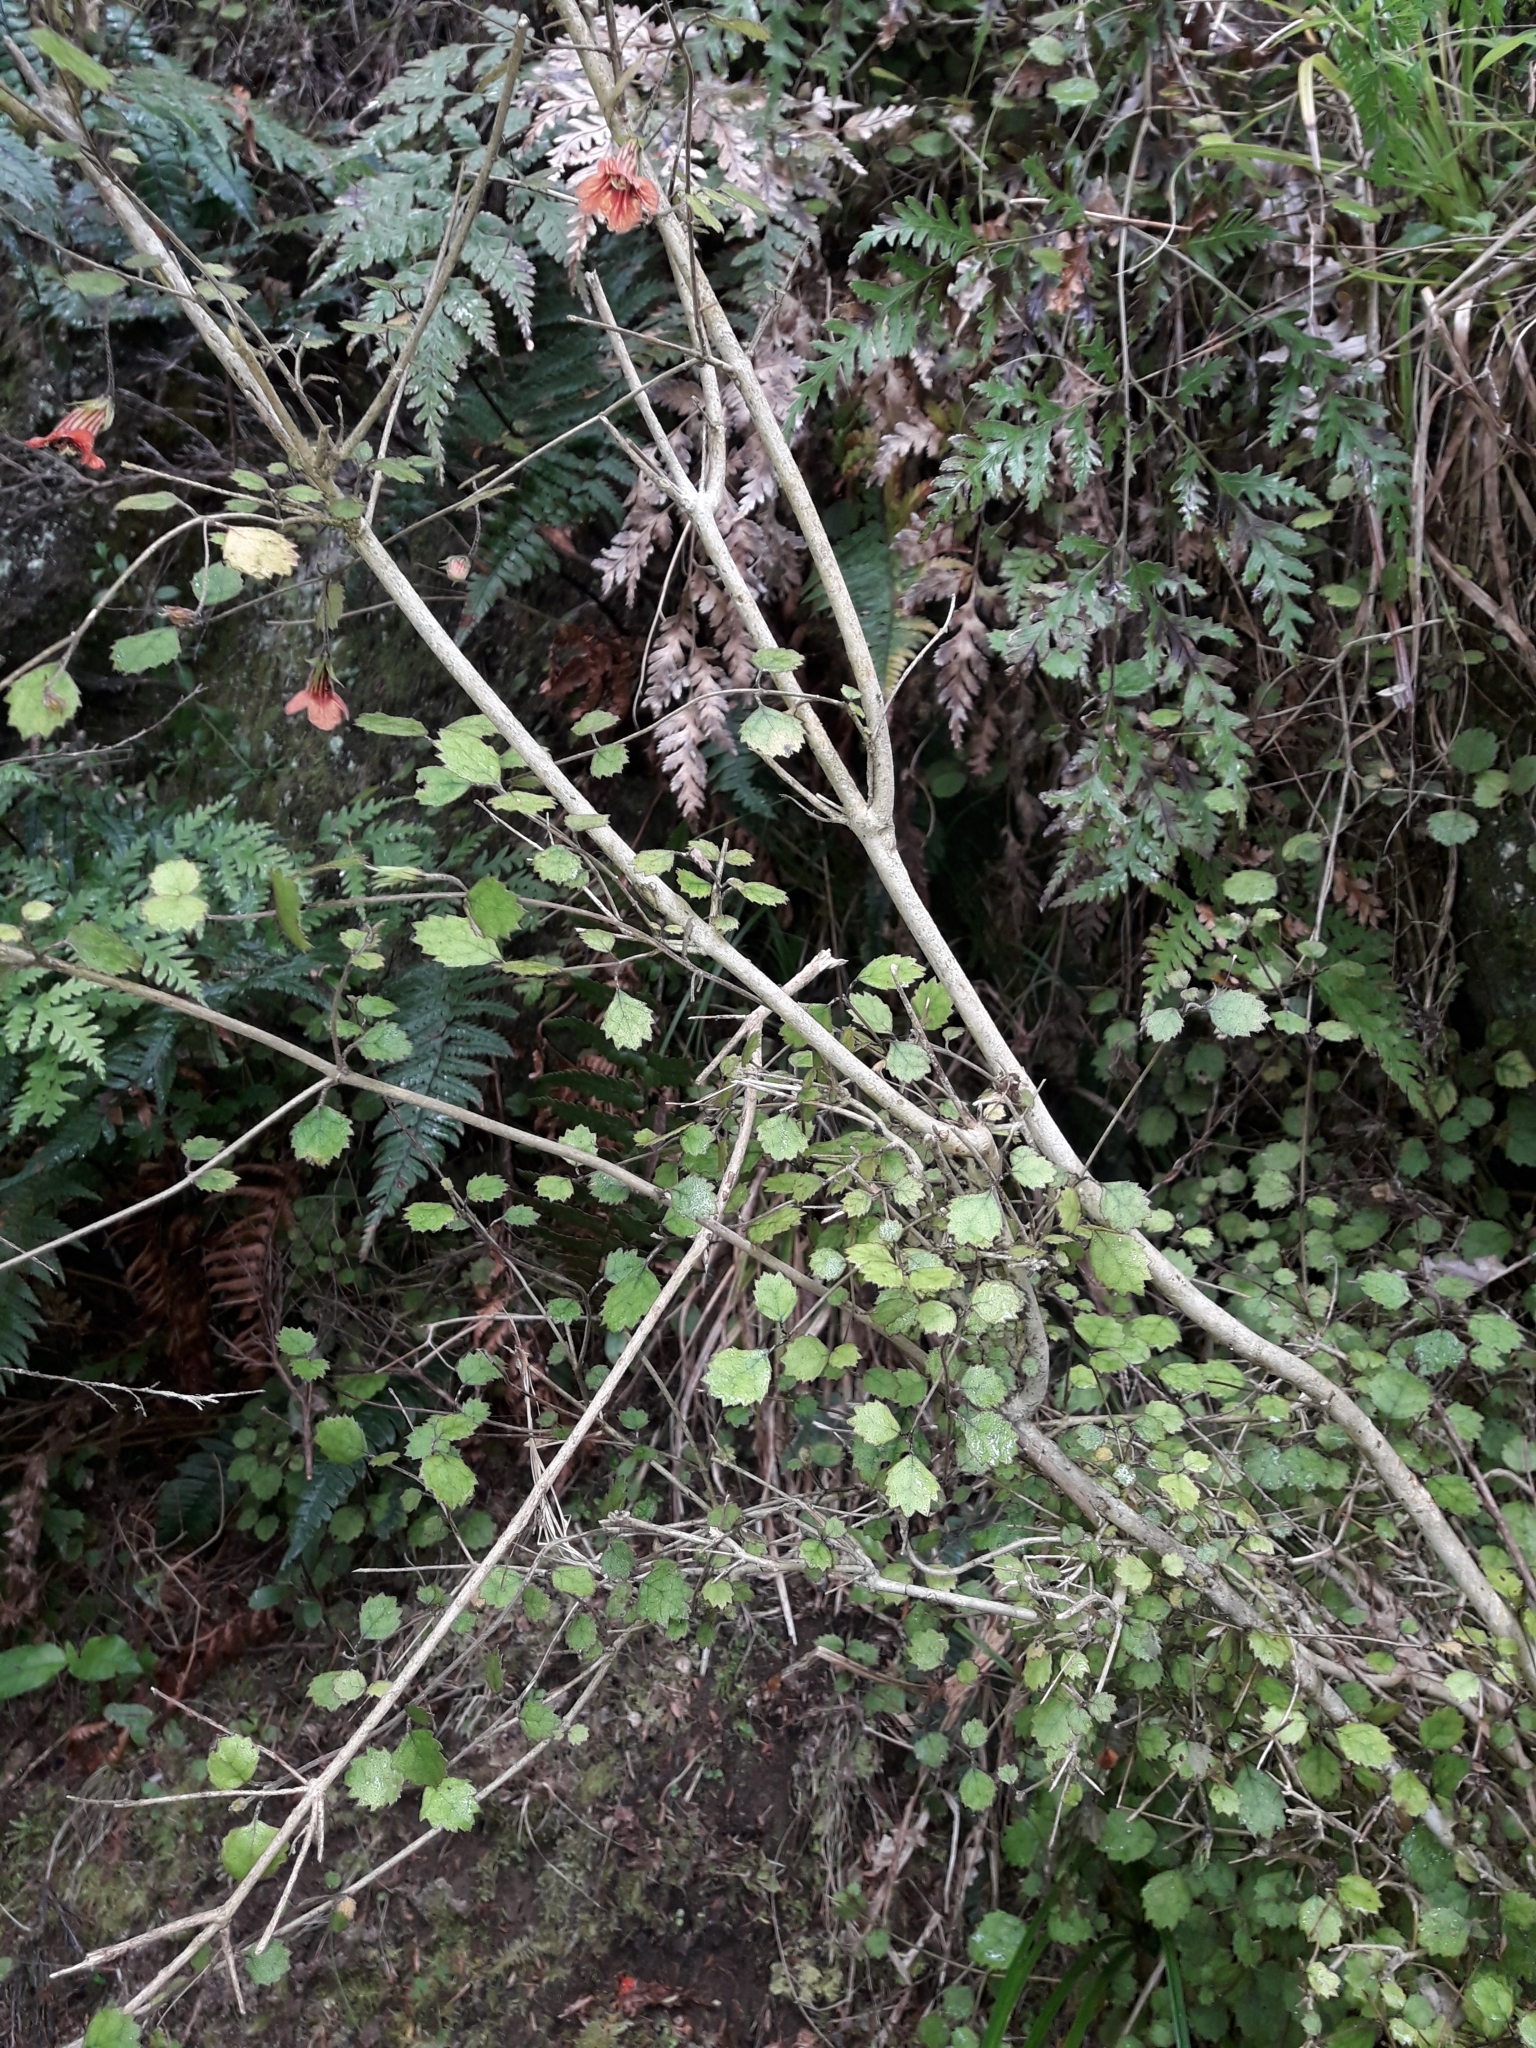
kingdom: Plantae
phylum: Tracheophyta
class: Magnoliopsida
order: Lamiales
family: Gesneriaceae
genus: Rhabdothamnus
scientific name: Rhabdothamnus solandri
